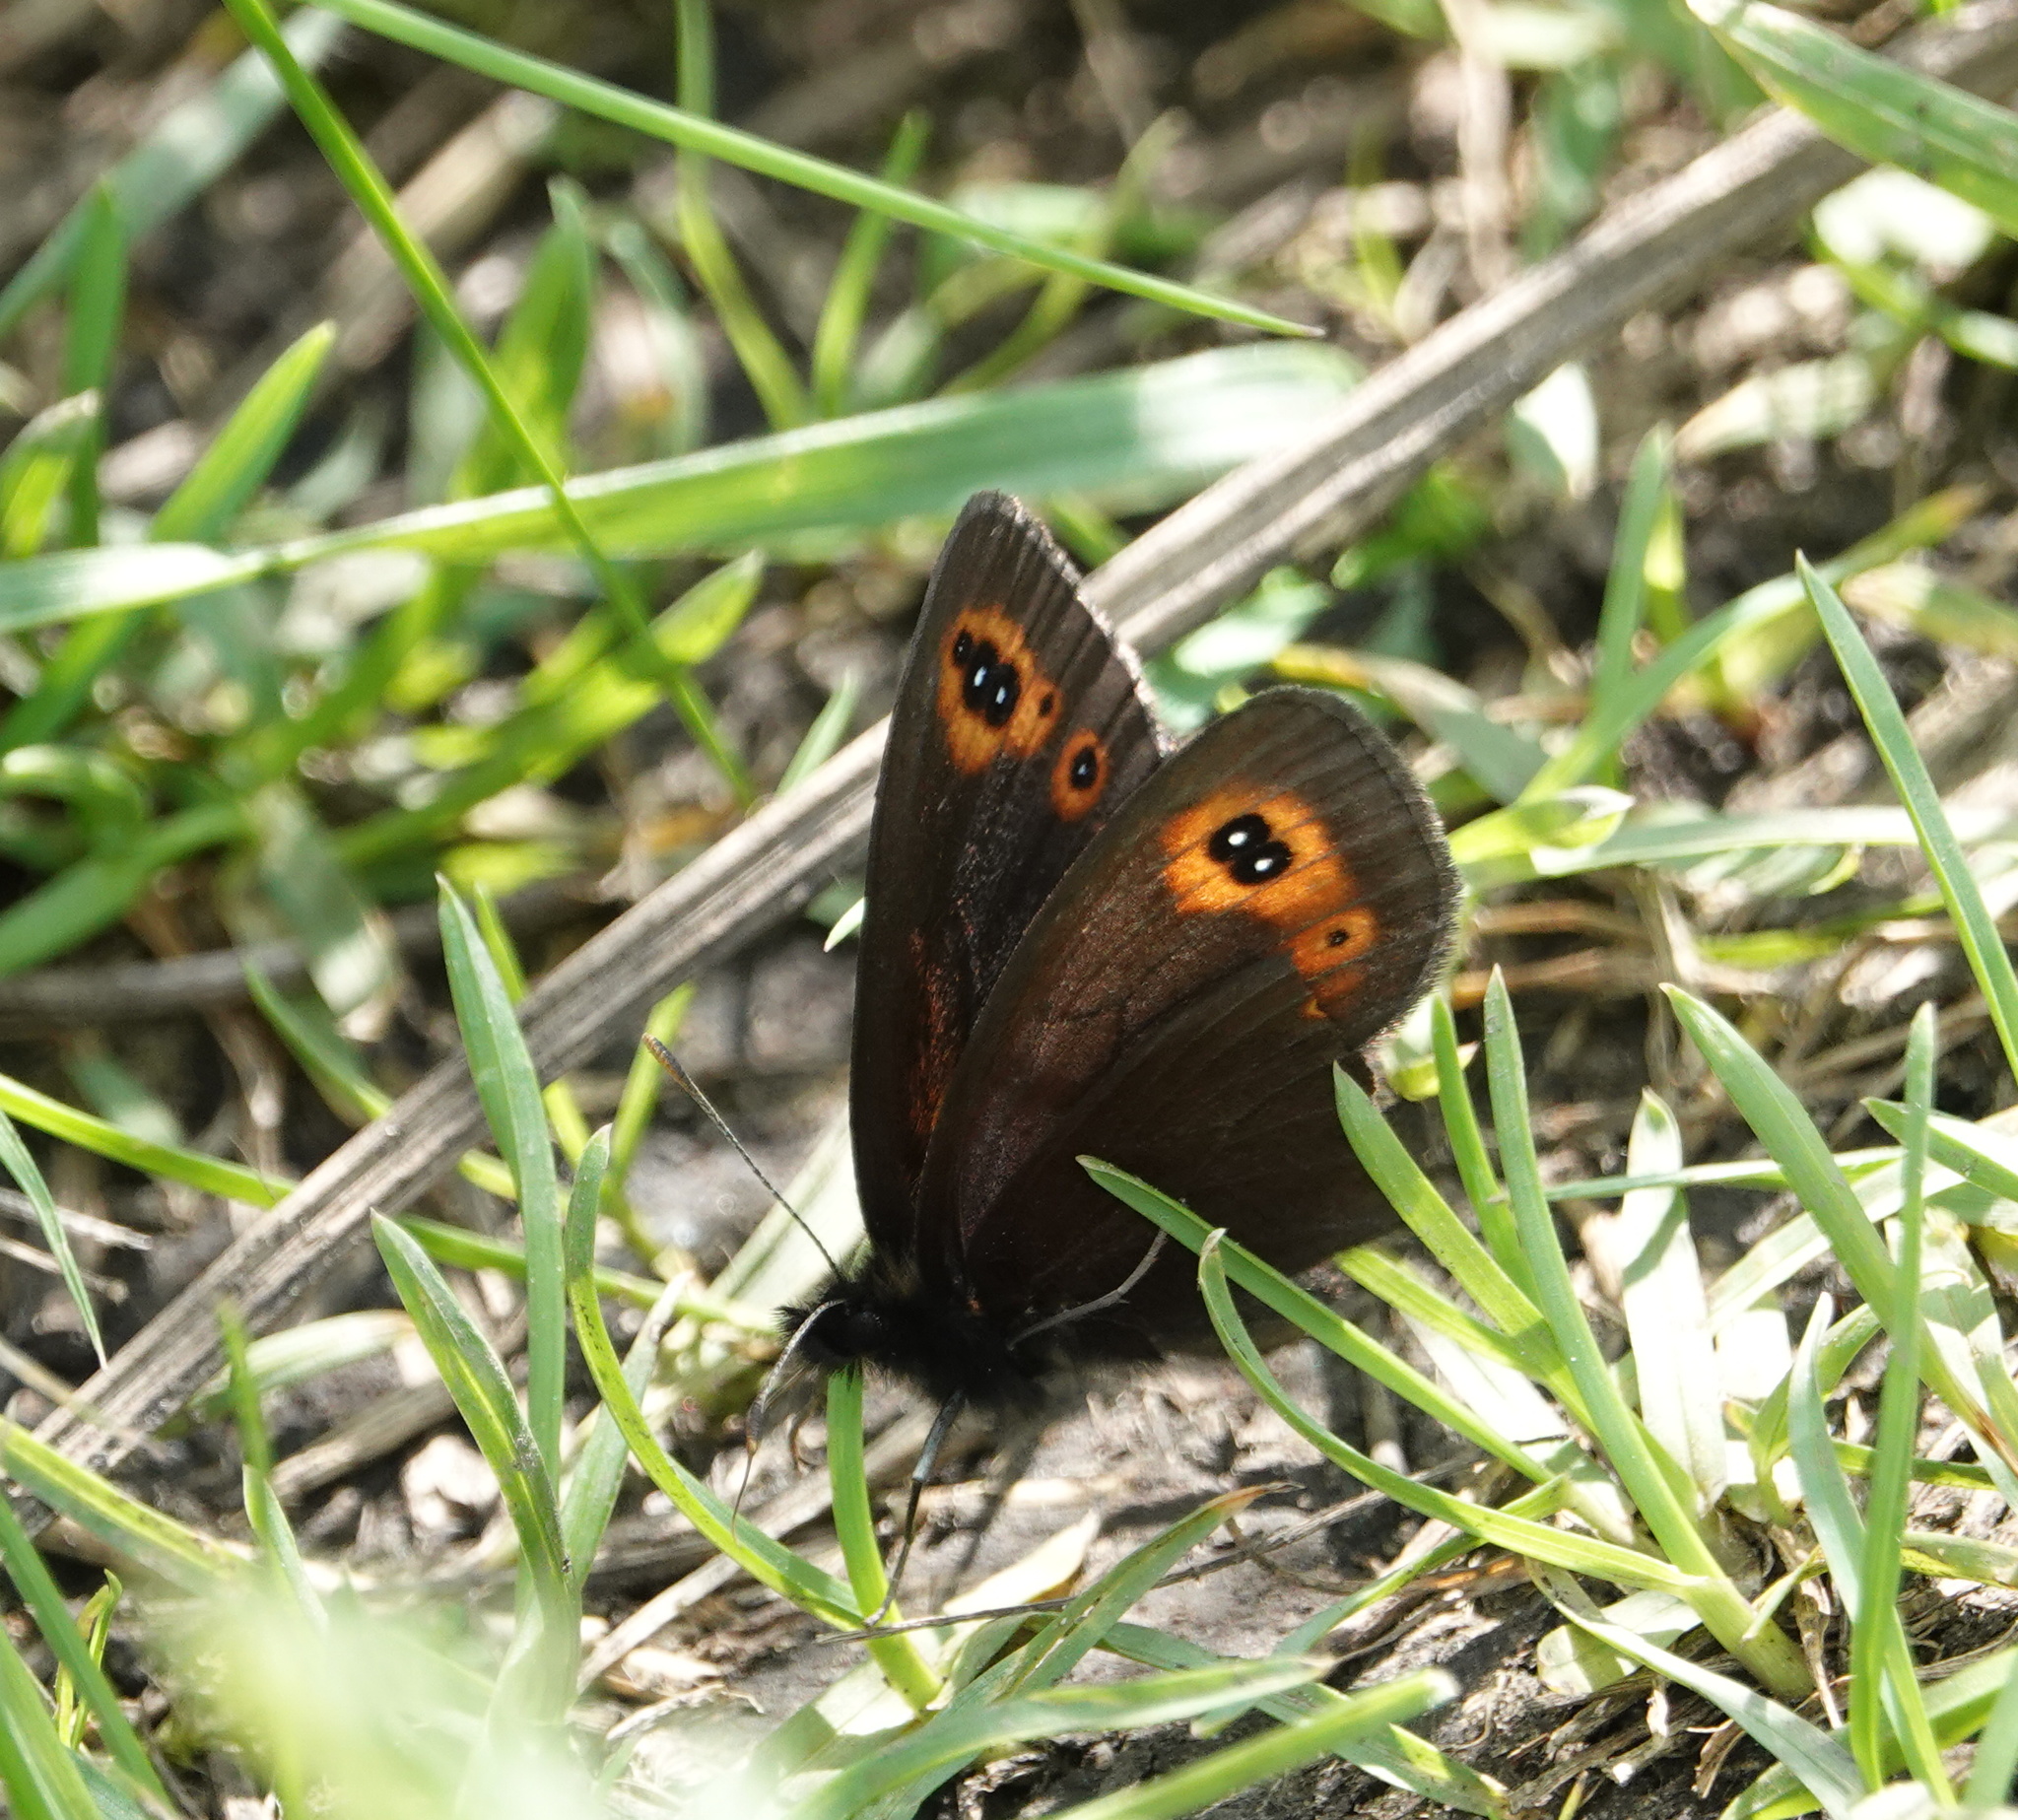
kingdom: Animalia
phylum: Arthropoda
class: Insecta
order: Lepidoptera
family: Nymphalidae
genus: Erebia
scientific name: Erebia medusa
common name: Woodland ringlet
